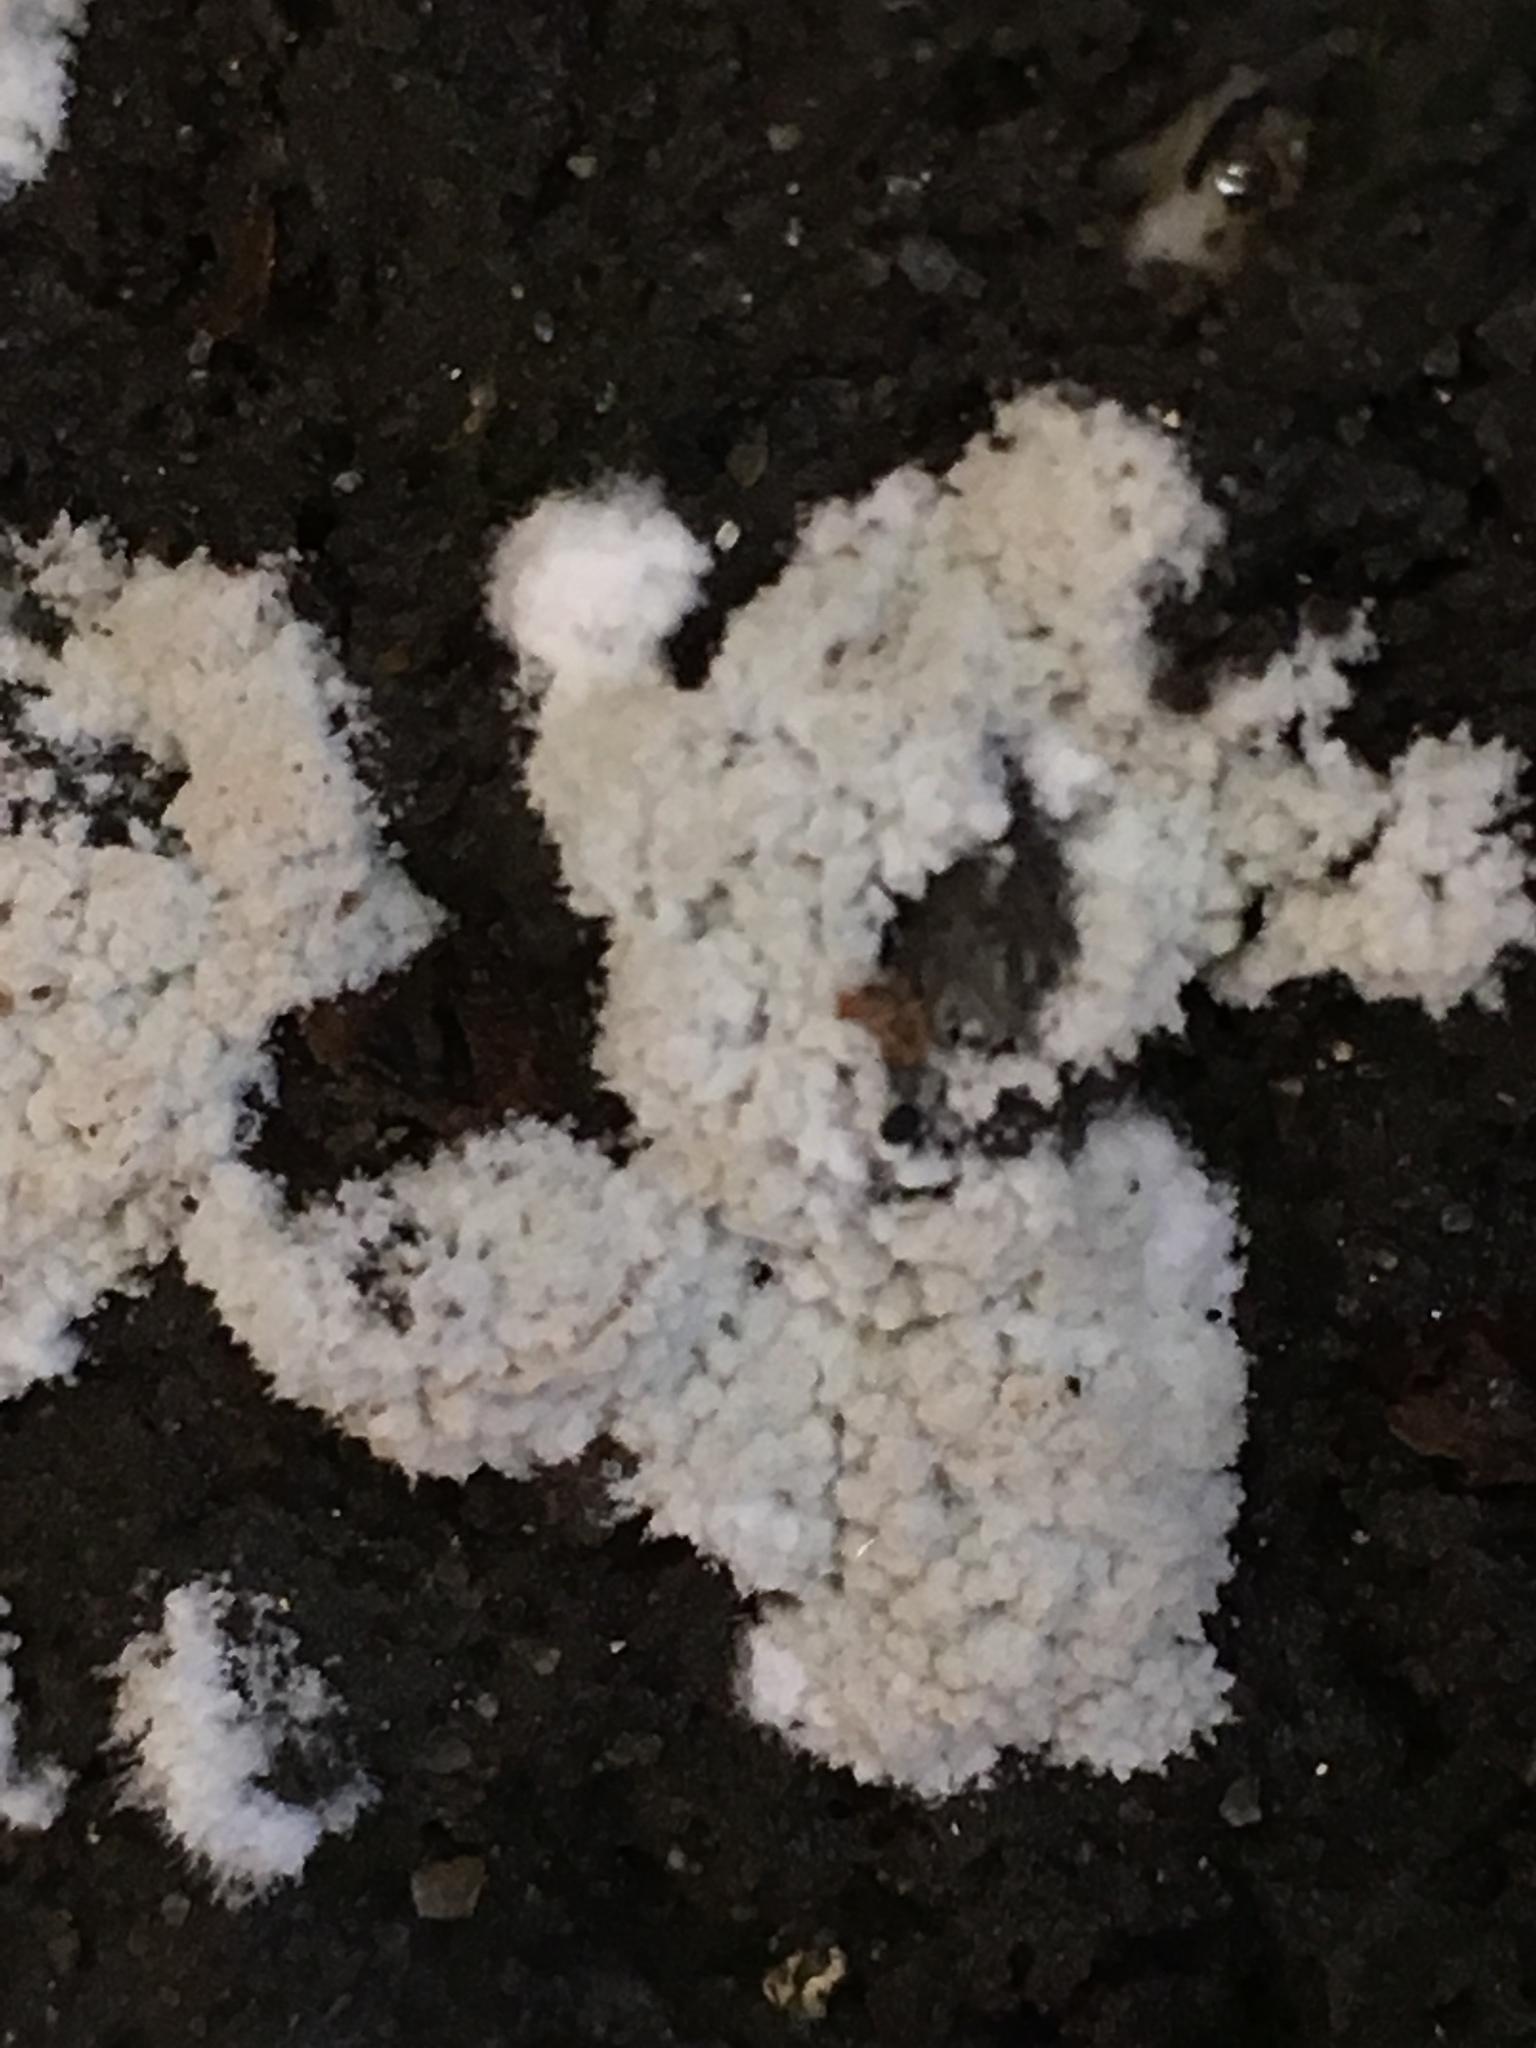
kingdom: Fungi
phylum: Basidiomycota
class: Agaricomycetes
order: Agaricales
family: Schizophyllaceae
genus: Schizophyllum
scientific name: Schizophyllum commune
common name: Common porecrust
